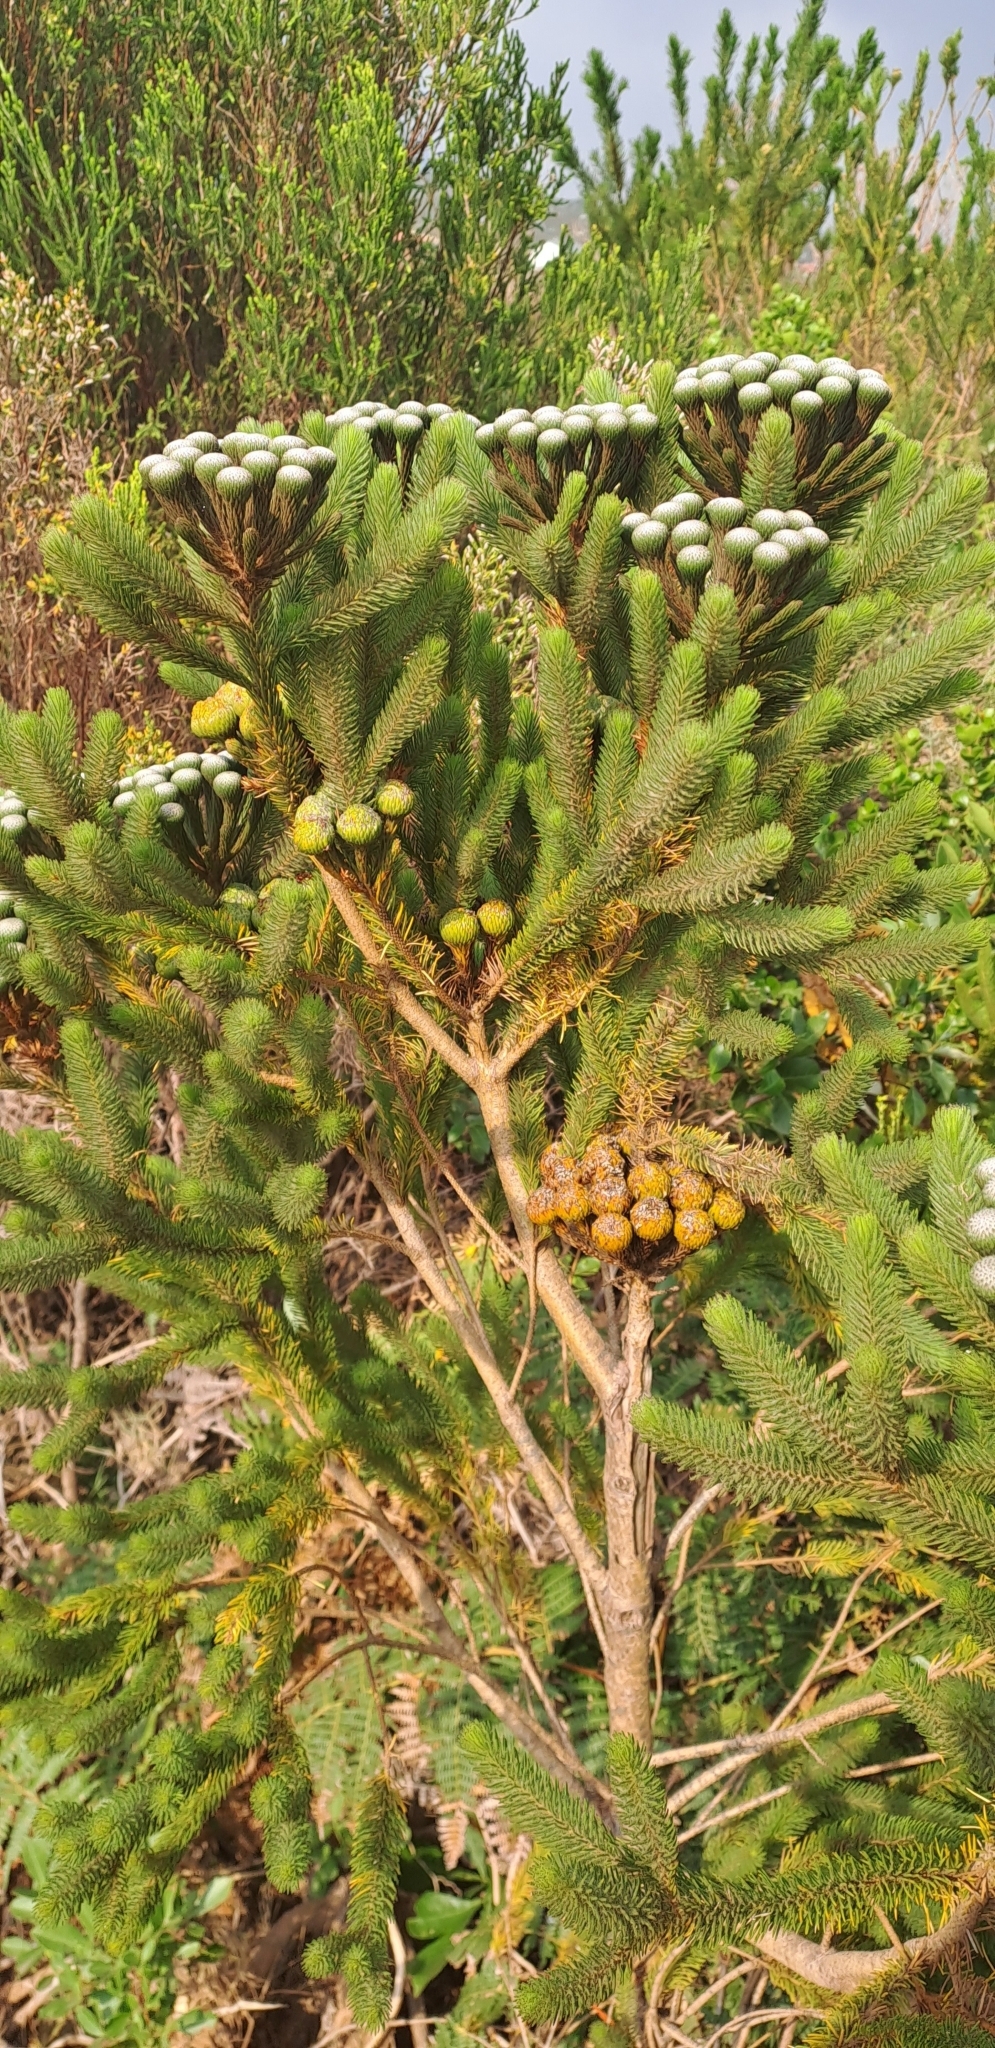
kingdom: Plantae
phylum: Tracheophyta
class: Magnoliopsida
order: Bruniales
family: Bruniaceae
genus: Berzelia
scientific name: Berzelia albiflora
